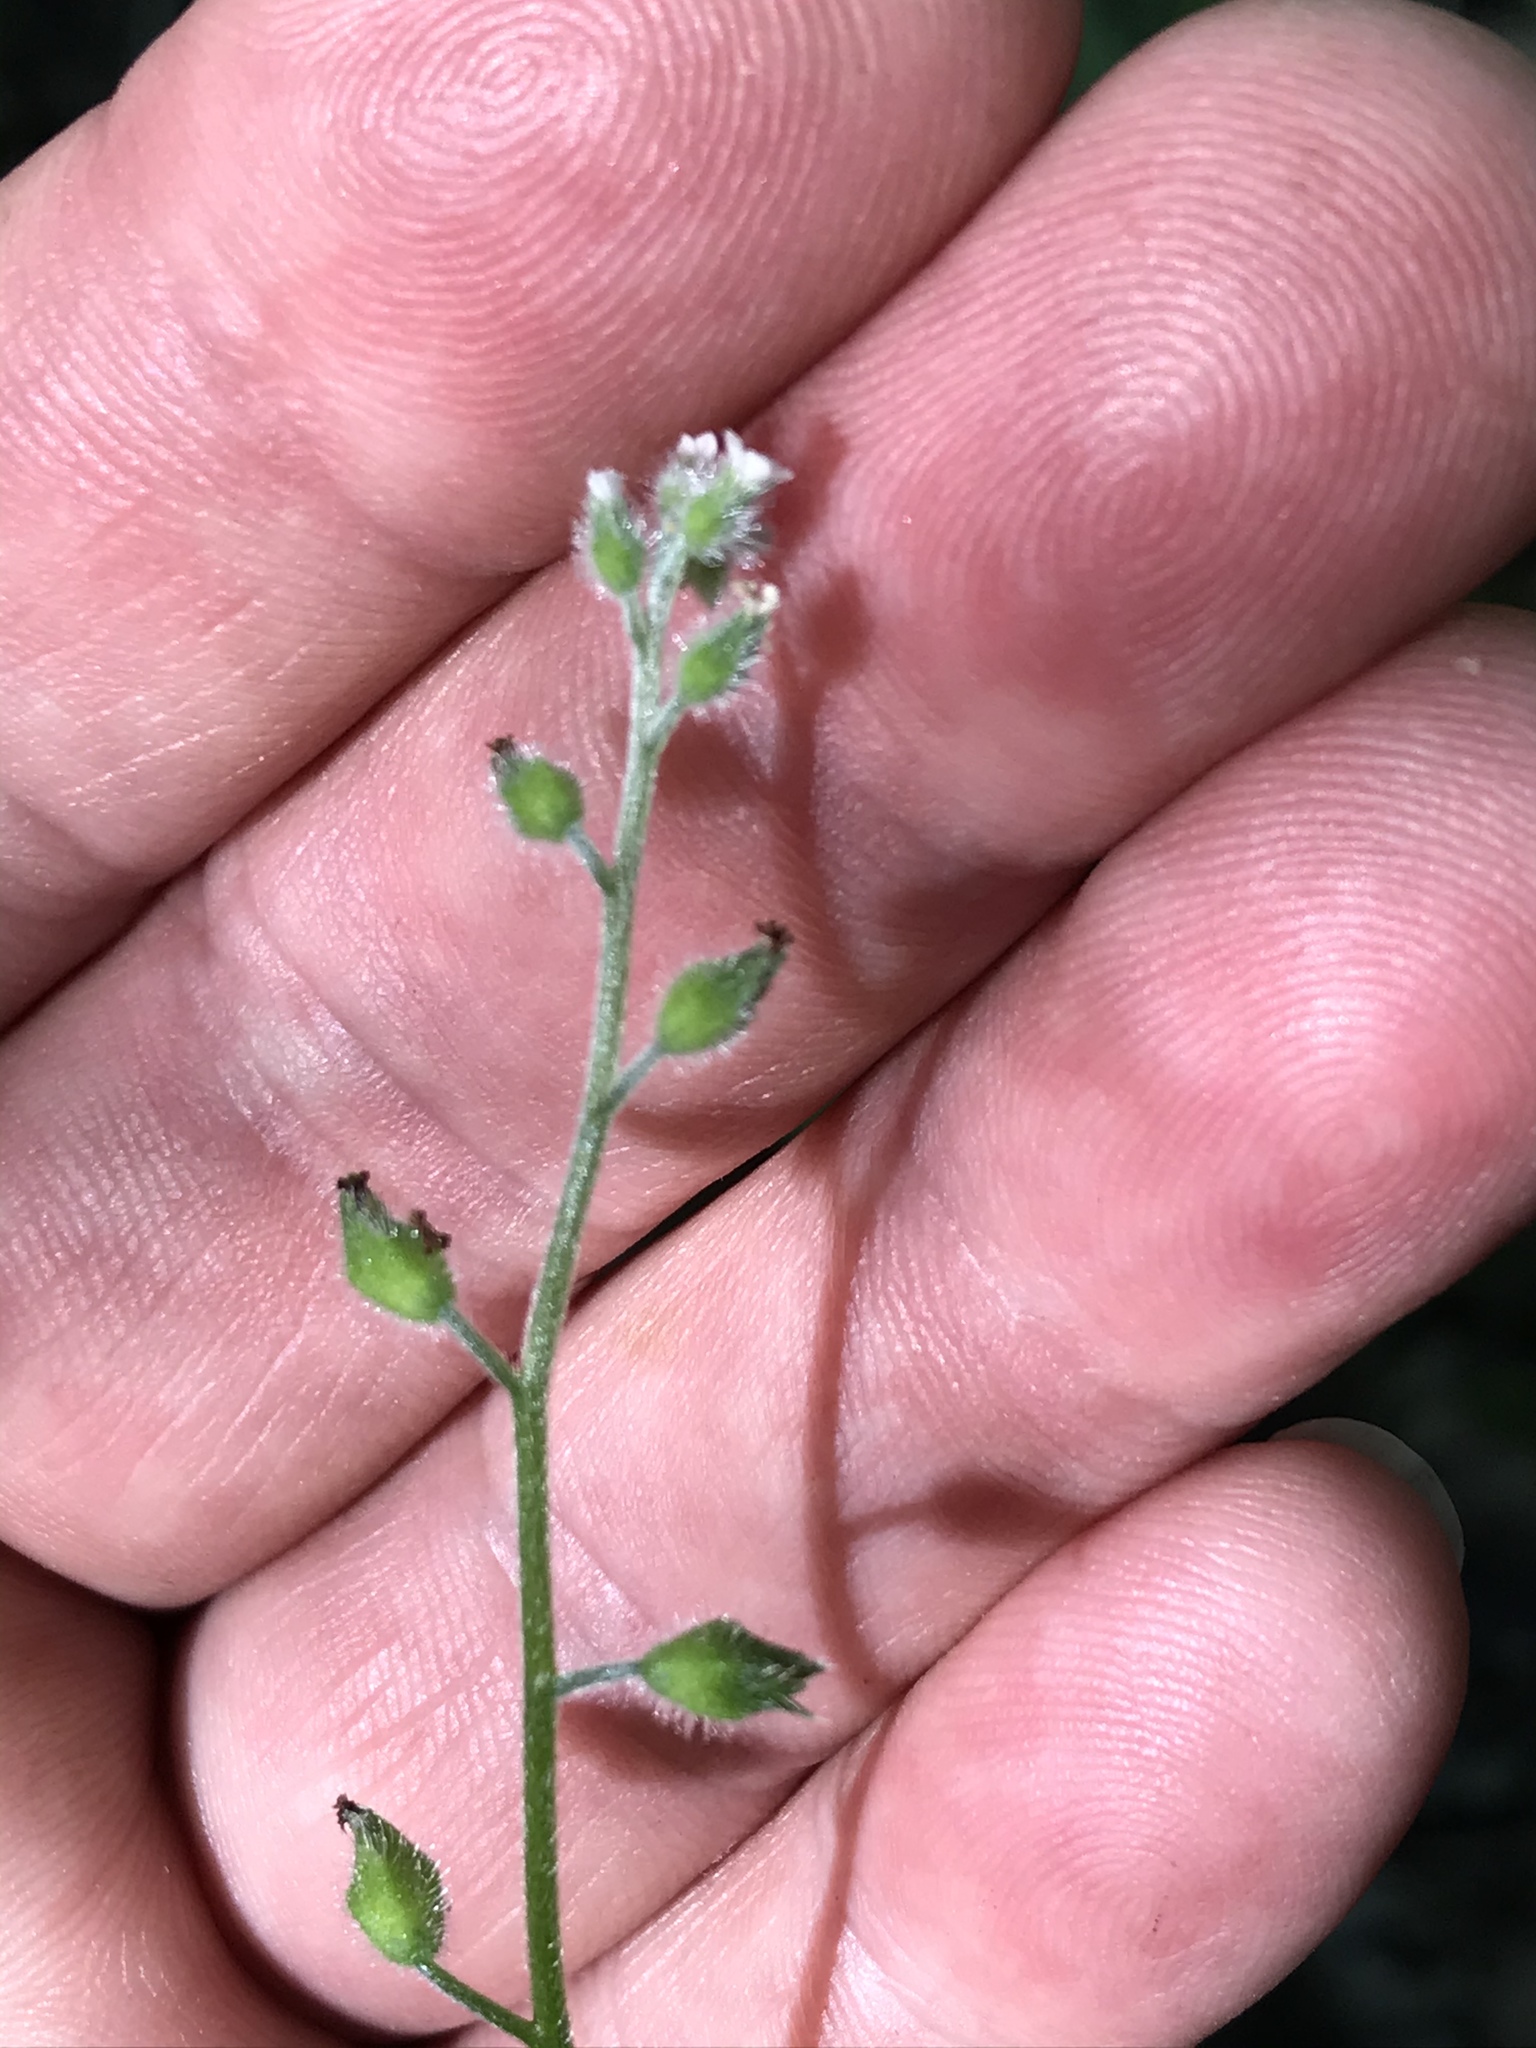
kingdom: Plantae
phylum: Tracheophyta
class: Magnoliopsida
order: Boraginales
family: Boraginaceae
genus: Myosotis
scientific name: Myosotis macrosperma
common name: Large-seed forget-me-not
